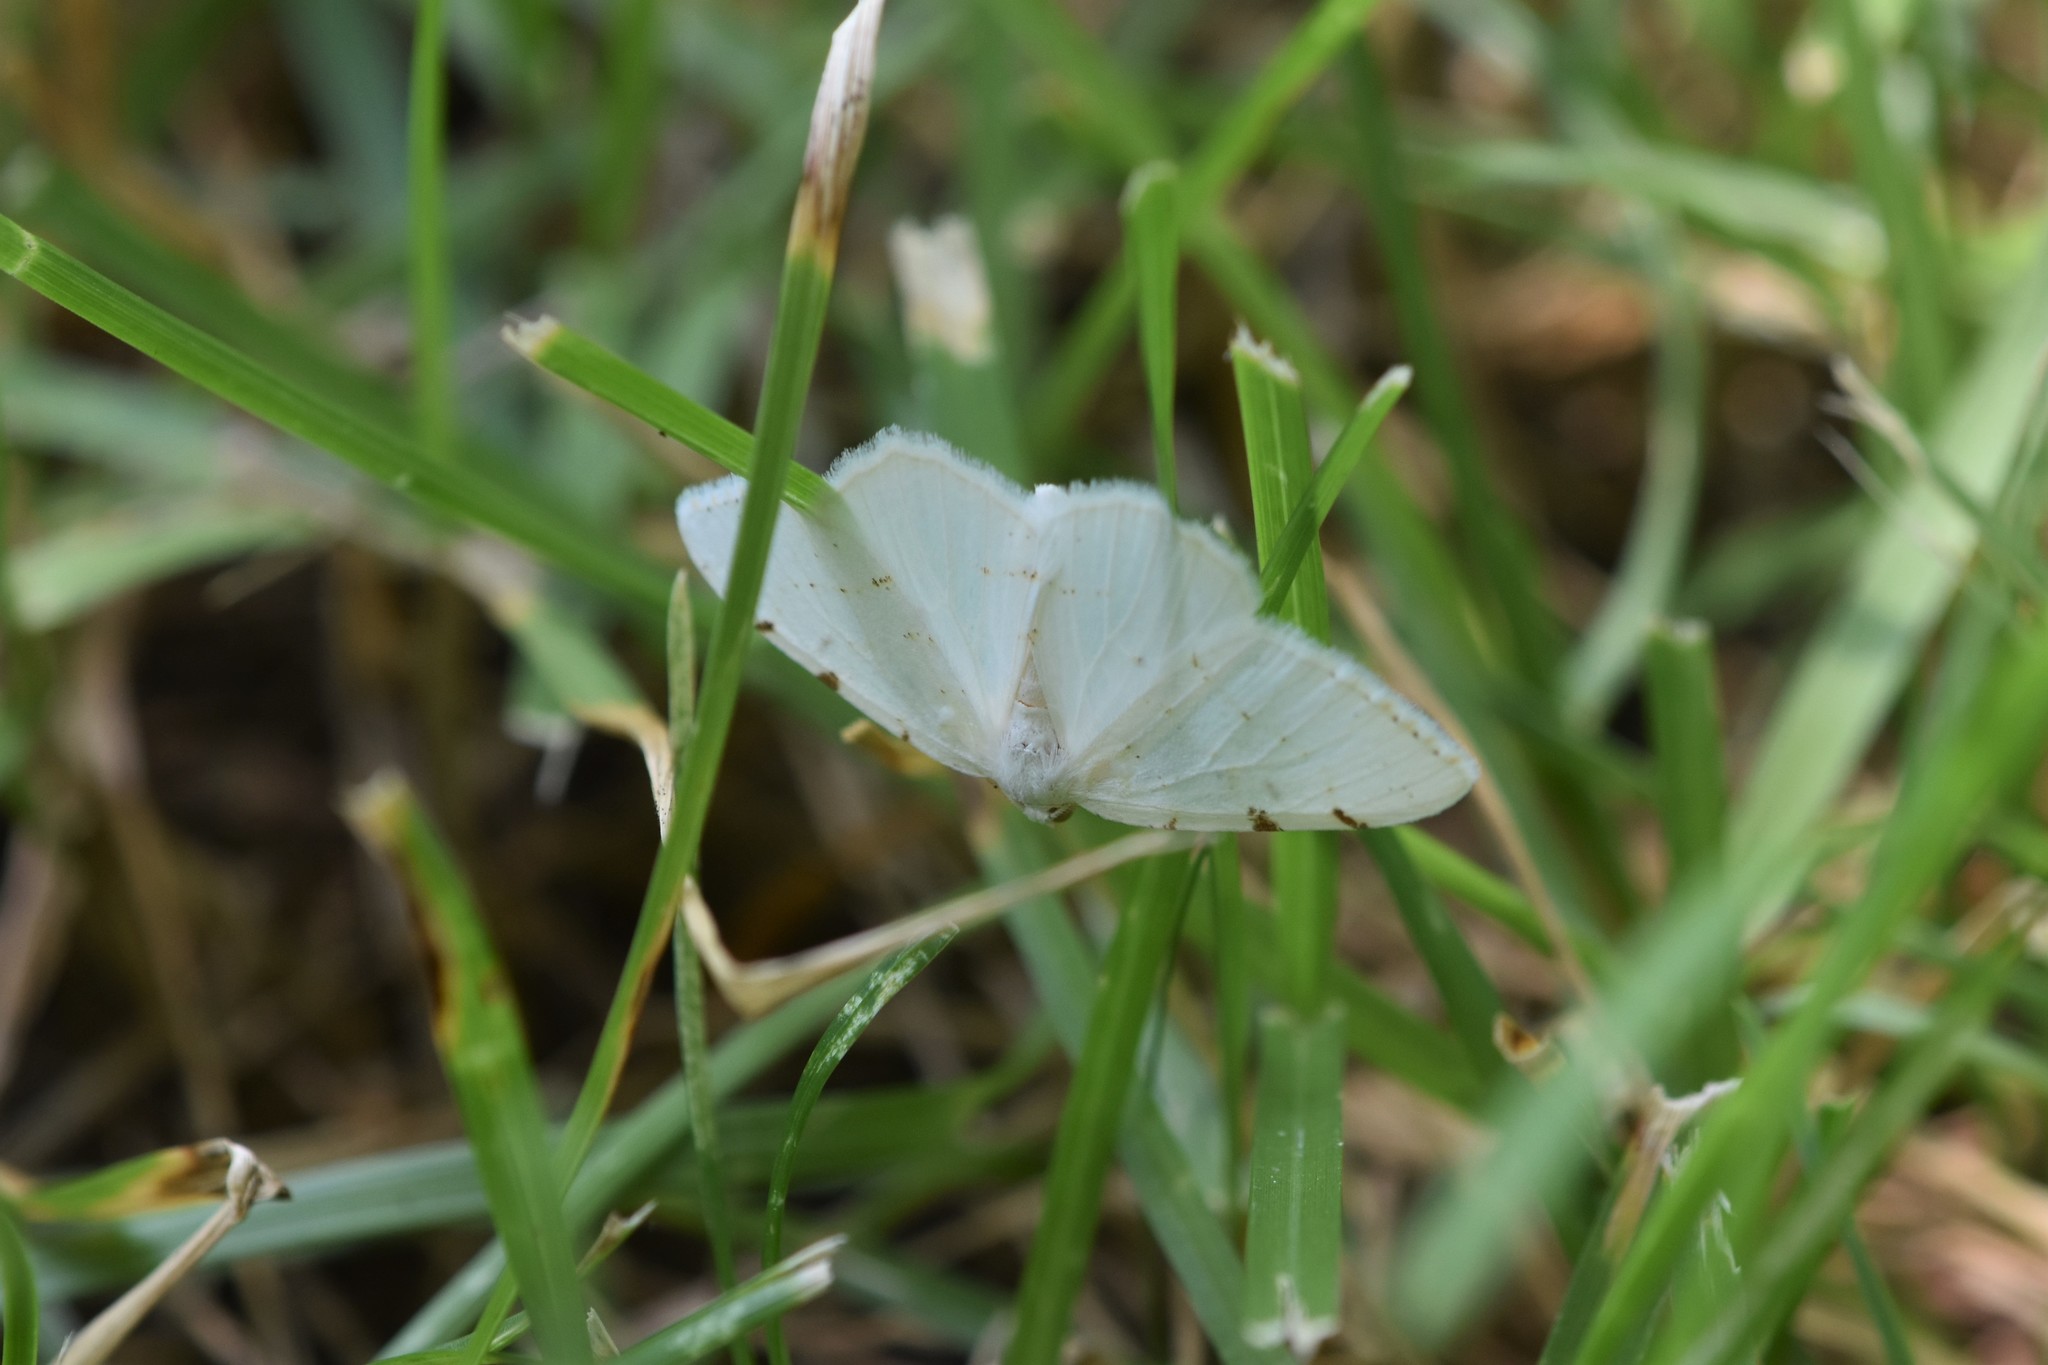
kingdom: Animalia
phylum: Arthropoda
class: Insecta
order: Lepidoptera
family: Geometridae
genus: Macaria
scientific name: Macaria pustularia
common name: Lesser maple spanworm moth
